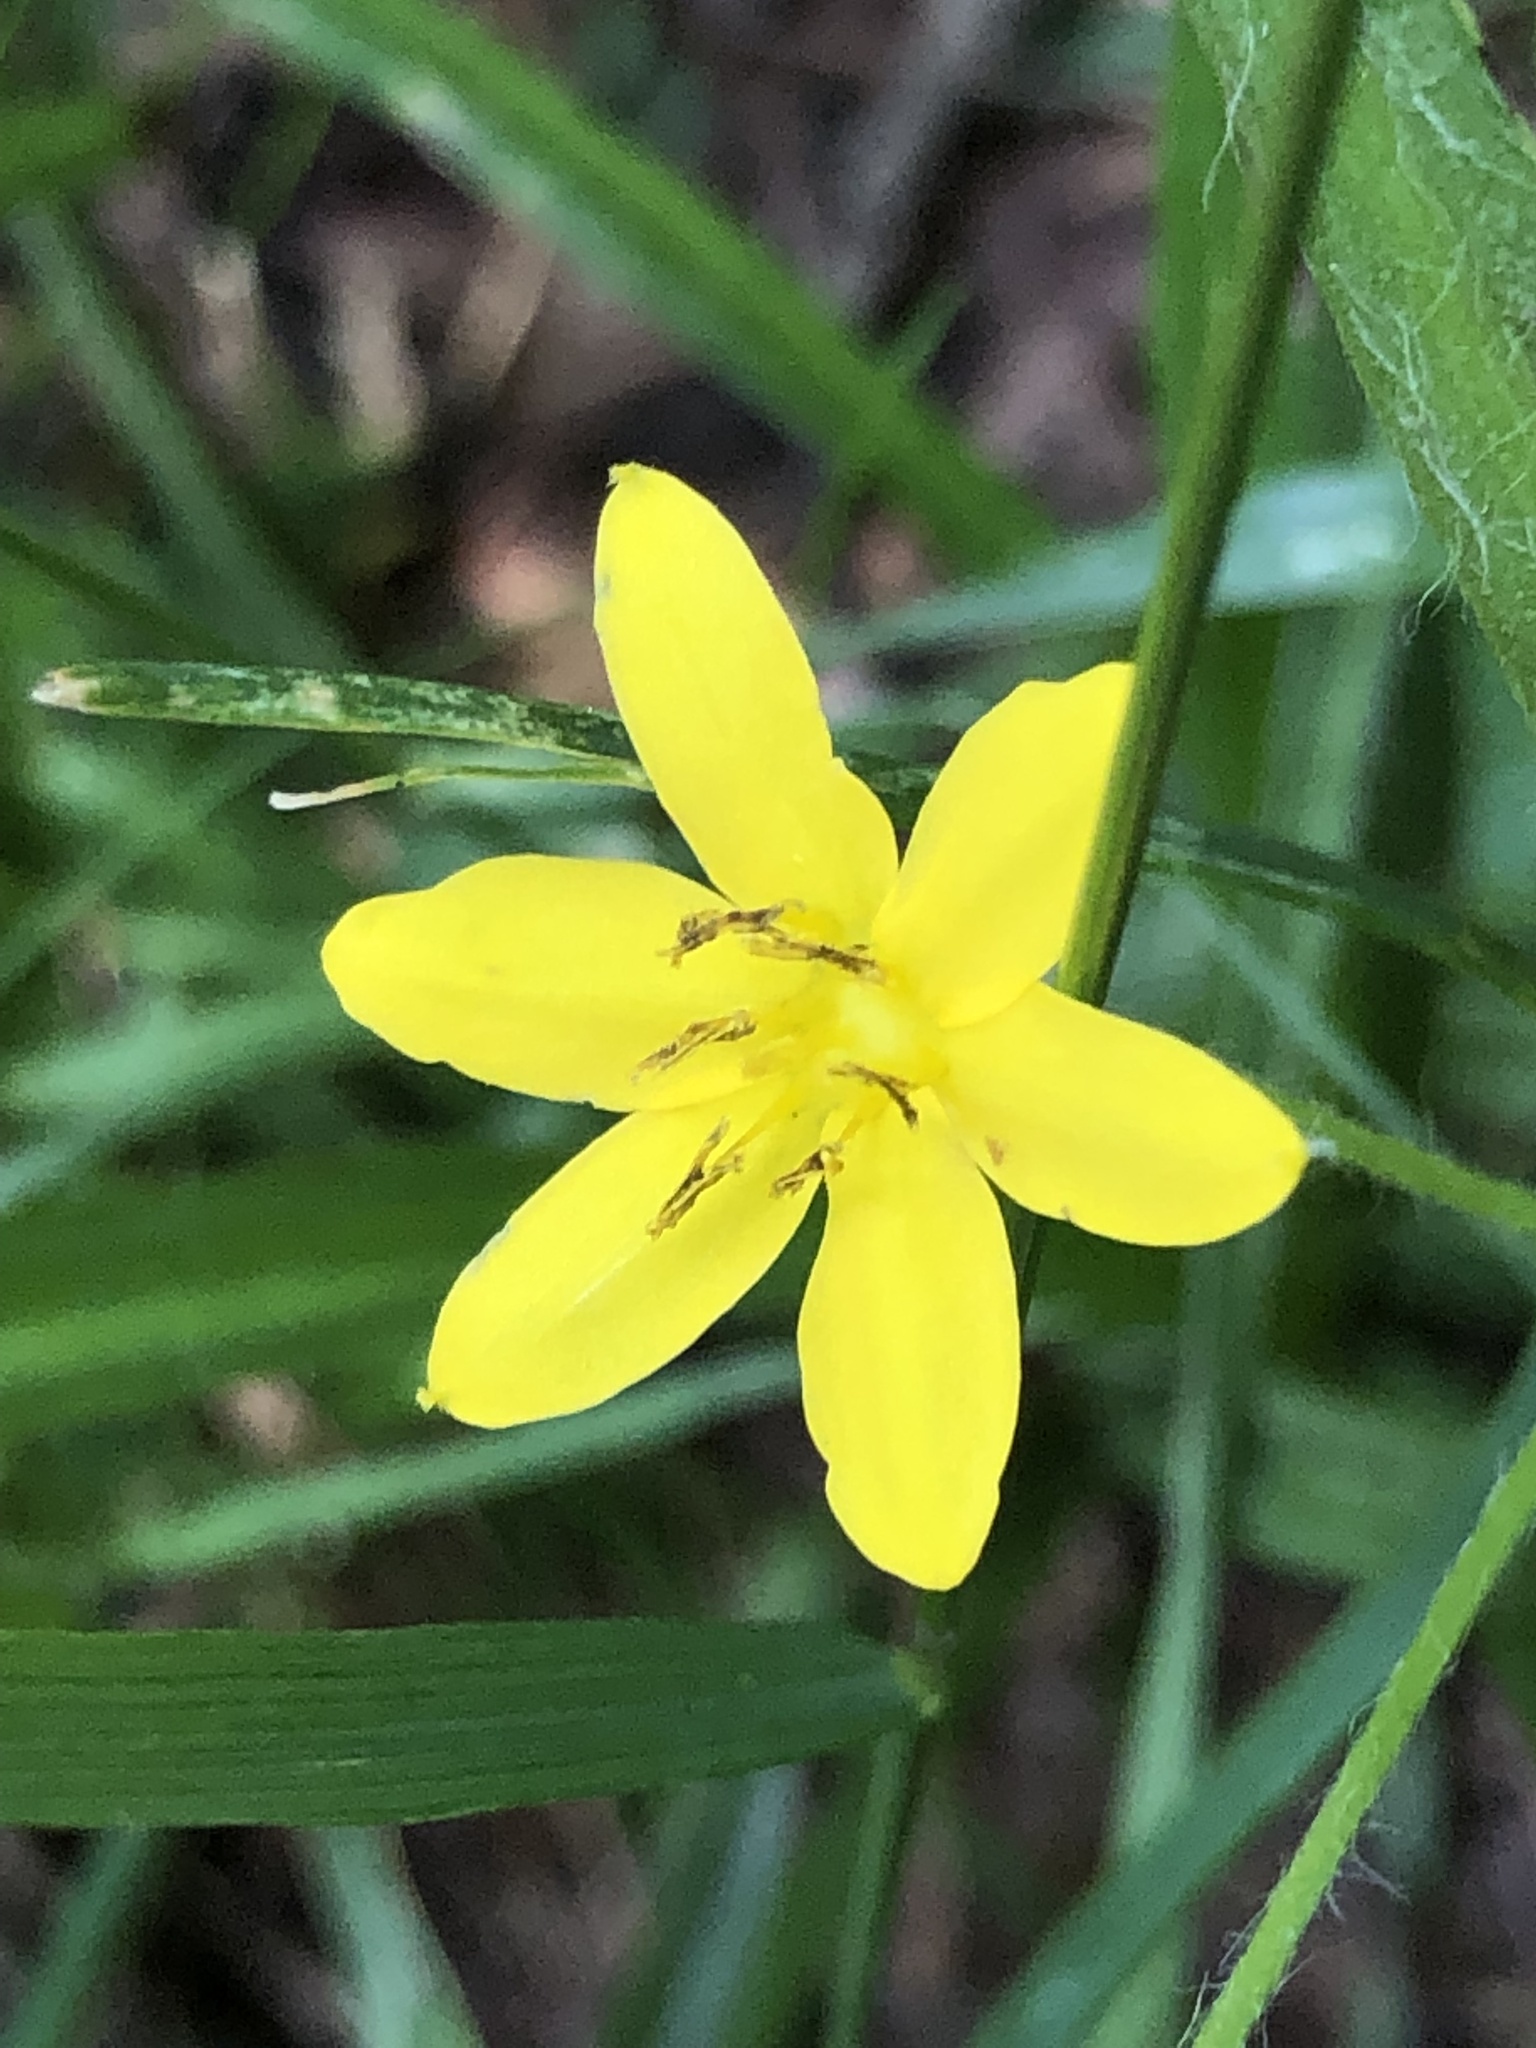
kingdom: Plantae
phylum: Tracheophyta
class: Liliopsida
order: Asparagales
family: Hypoxidaceae
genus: Hypoxis
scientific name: Hypoxis hirsuta
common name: Common goldstar
